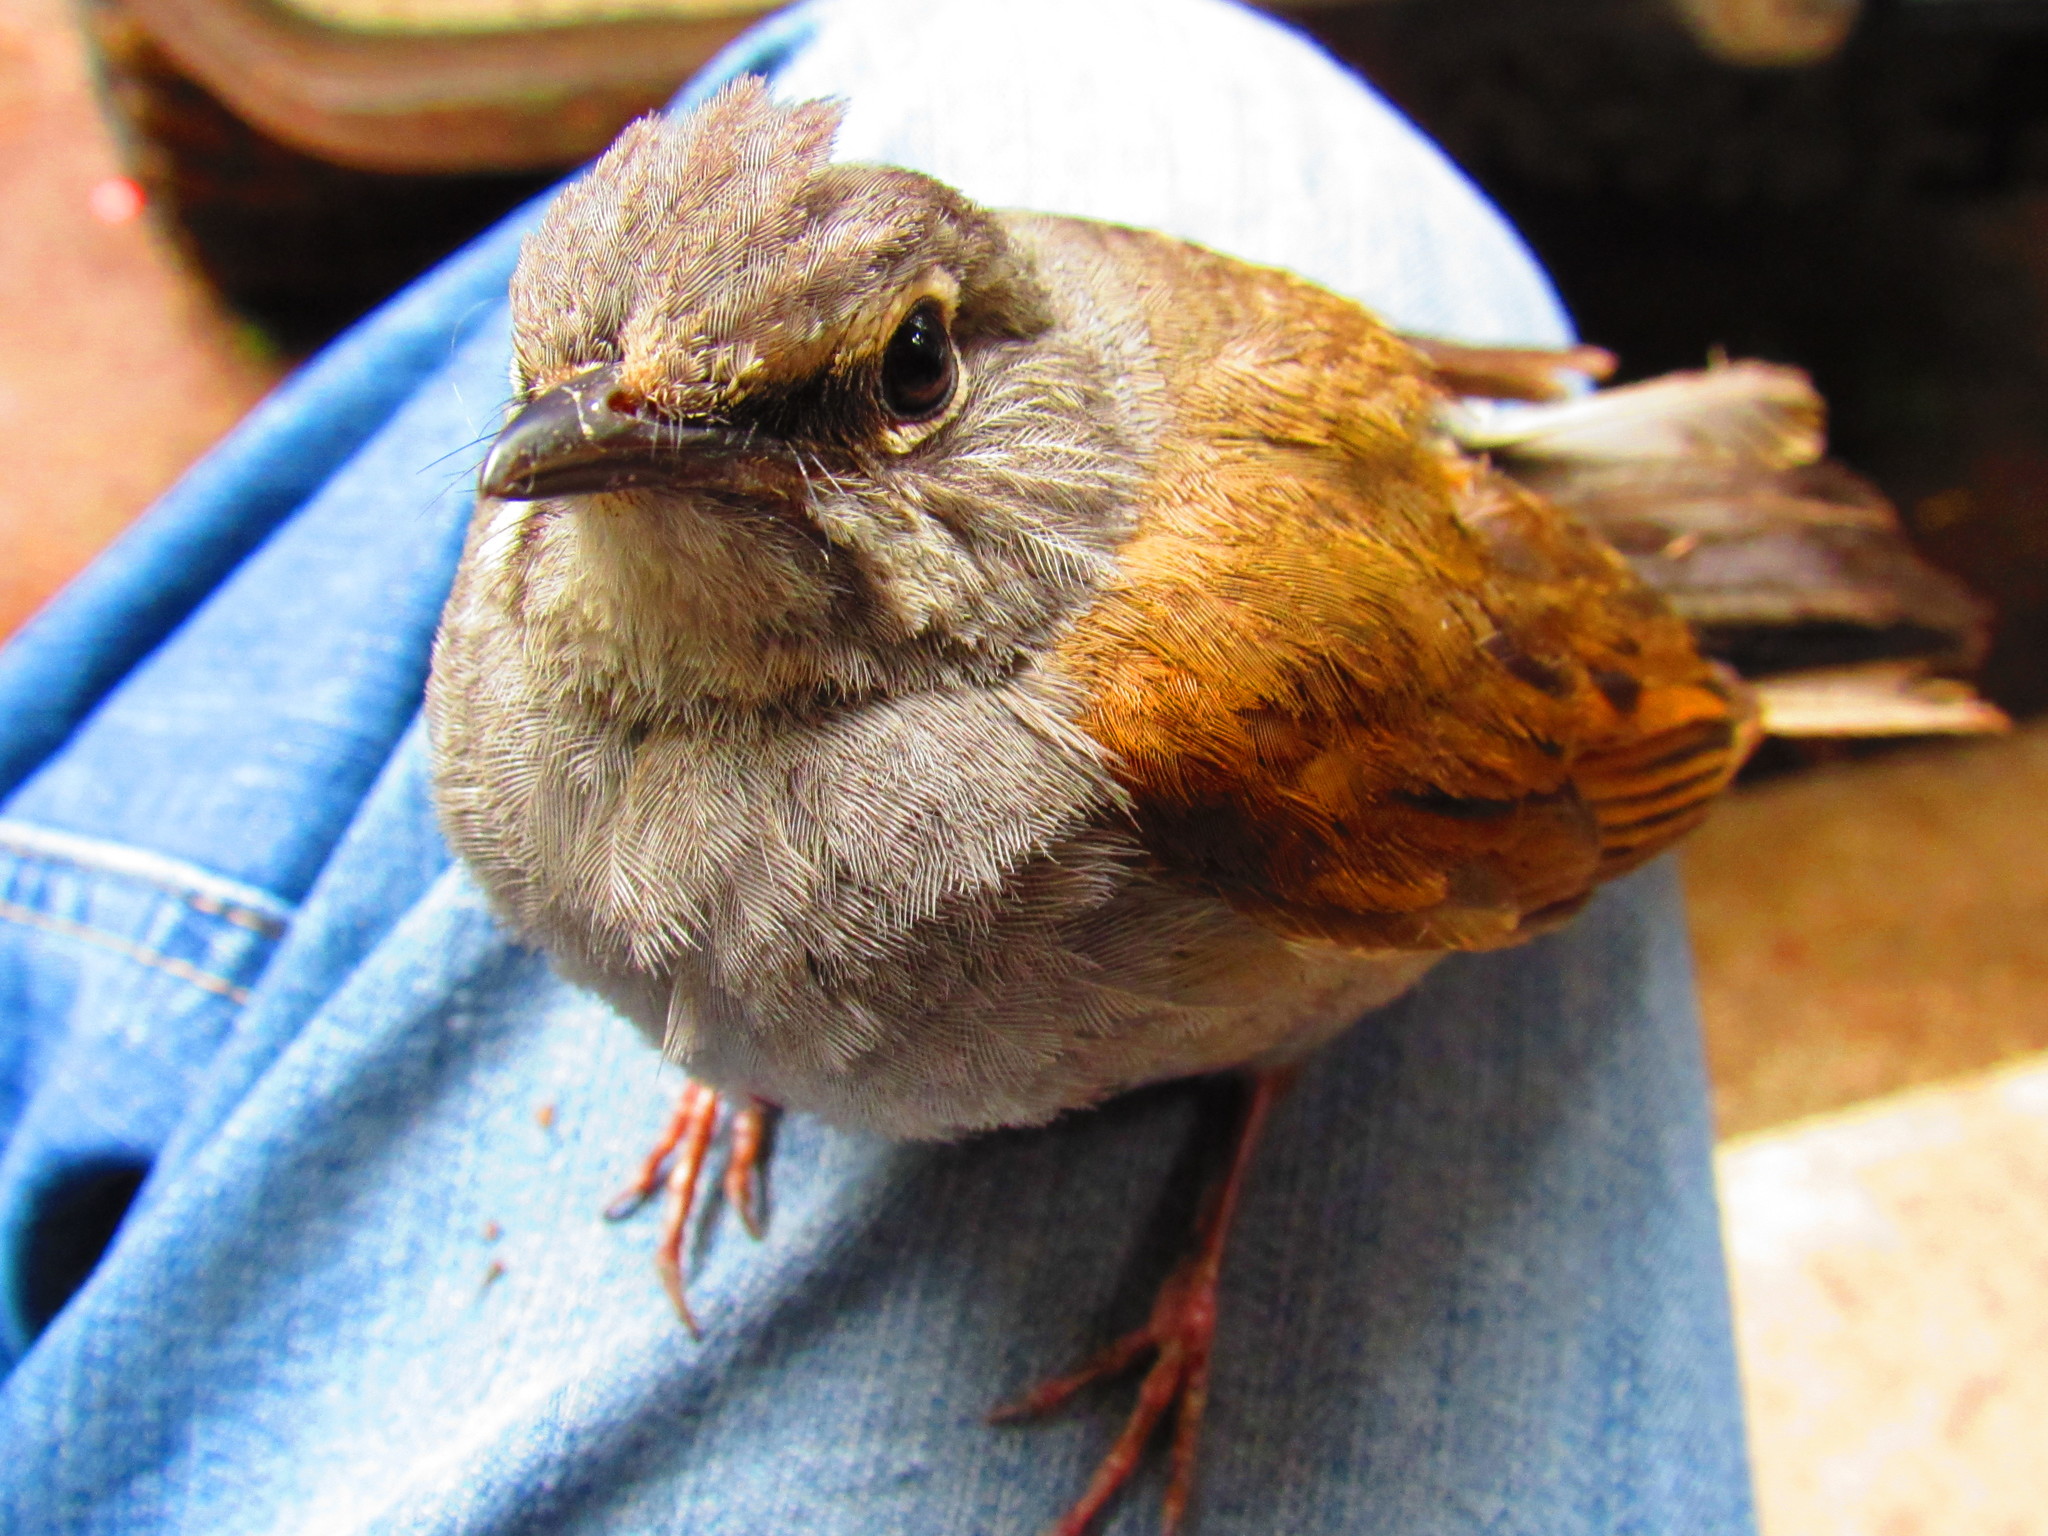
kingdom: Animalia
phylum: Chordata
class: Aves
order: Passeriformes
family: Turdidae
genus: Myadestes
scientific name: Myadestes occidentalis
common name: Brown-backed solitaire
